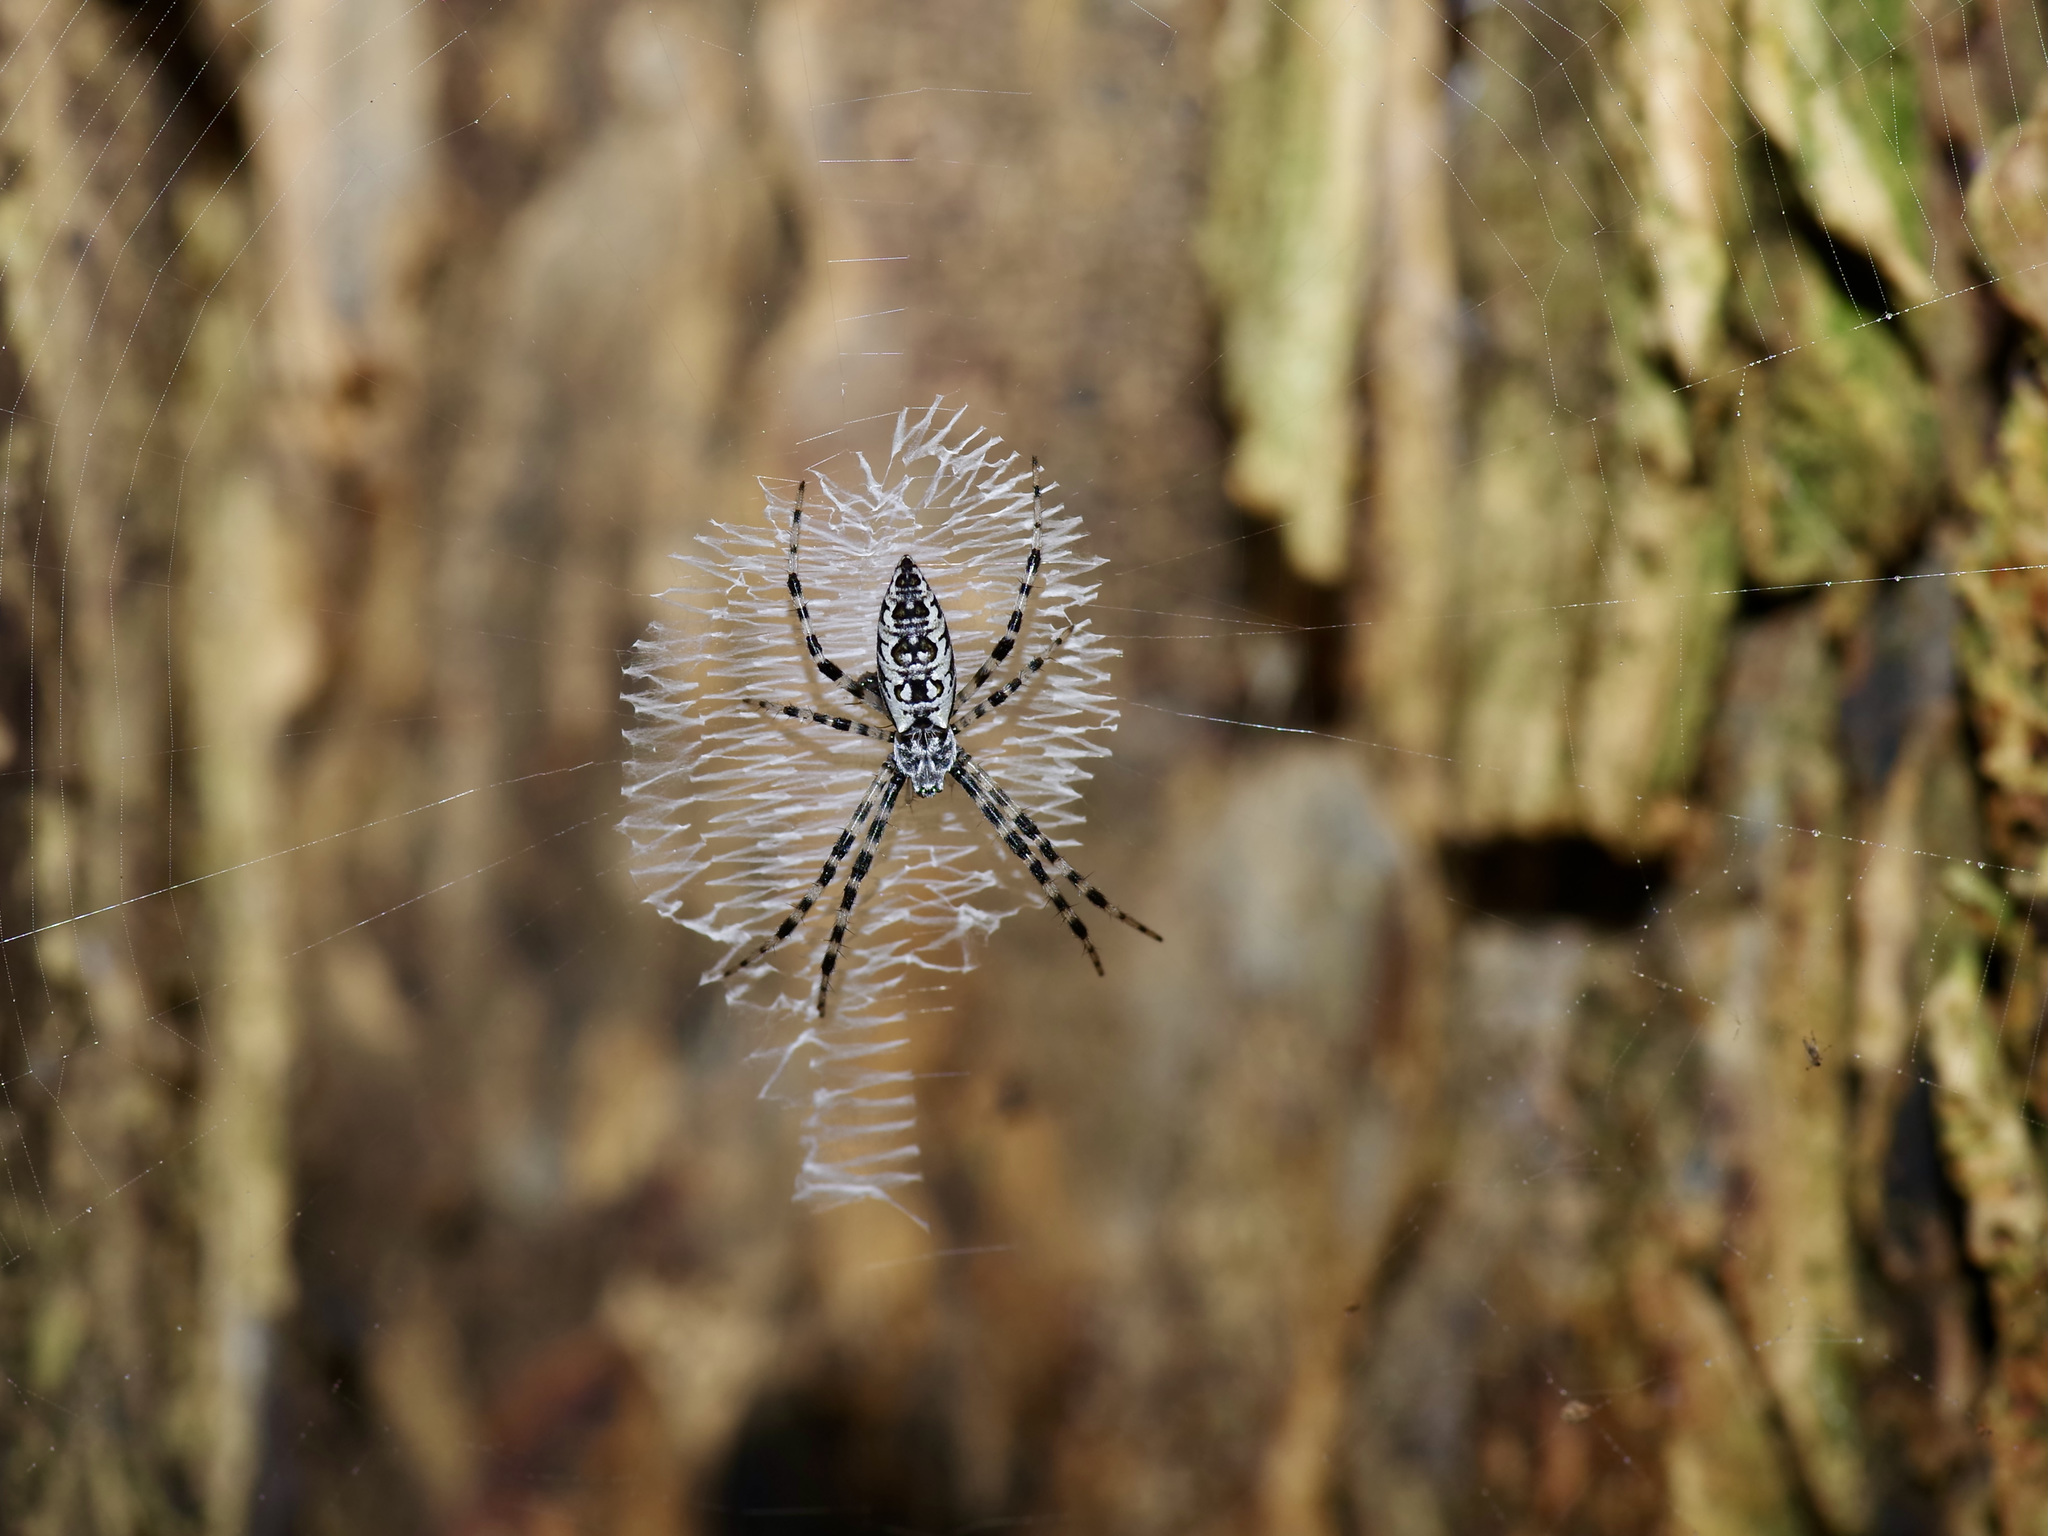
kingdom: Animalia
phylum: Arthropoda
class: Arachnida
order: Araneae
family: Araneidae
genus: Argiope
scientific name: Argiope aurantia
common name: Orb weavers
